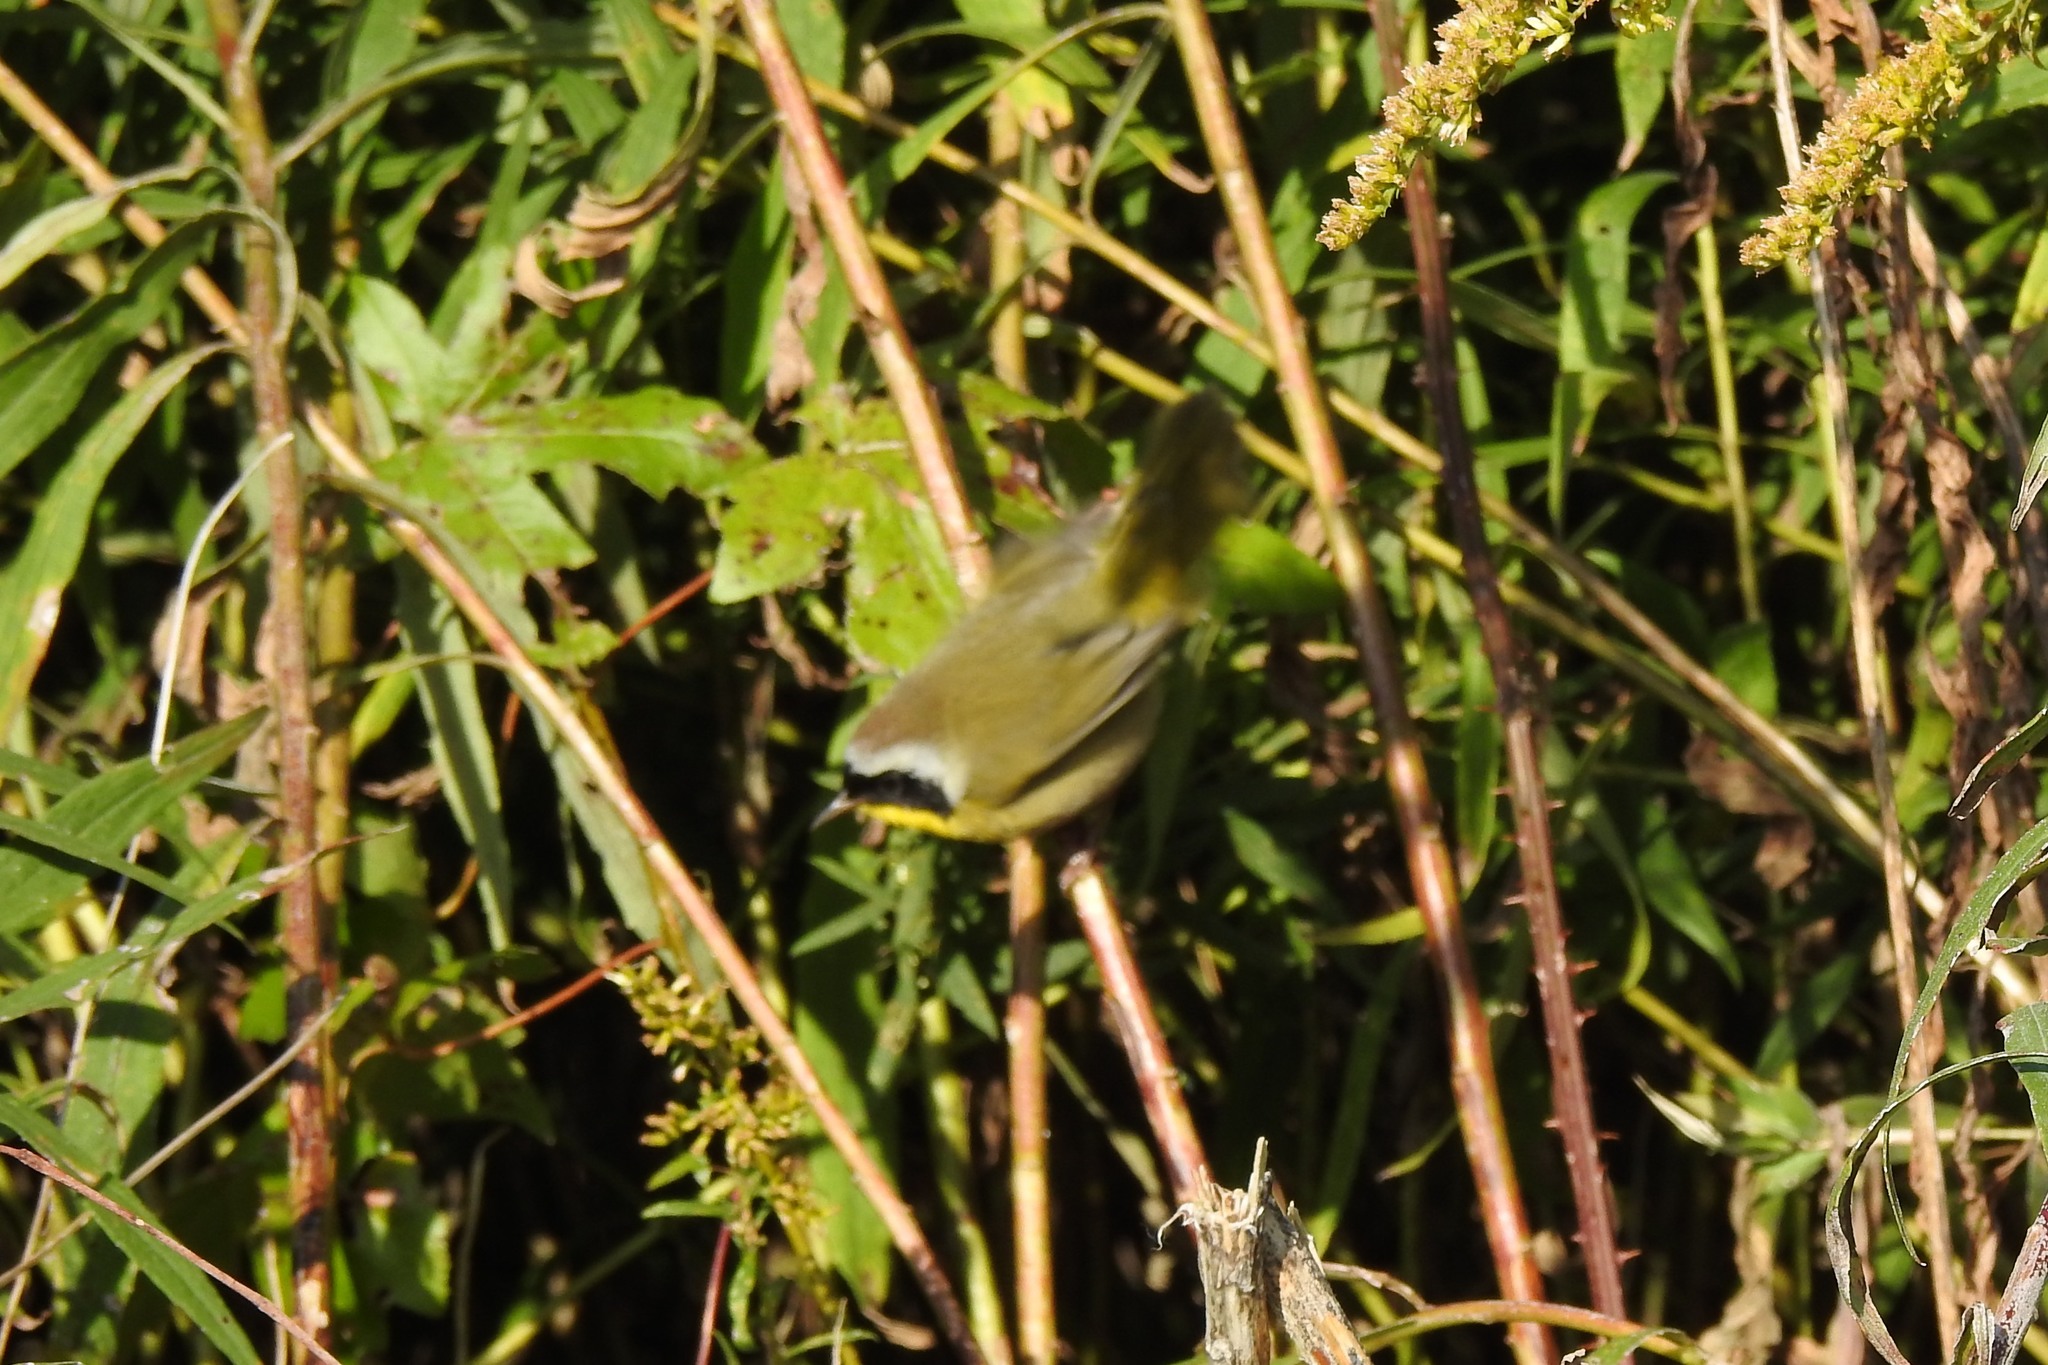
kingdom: Animalia
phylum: Chordata
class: Aves
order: Passeriformes
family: Parulidae
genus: Geothlypis
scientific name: Geothlypis trichas
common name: Common yellowthroat
